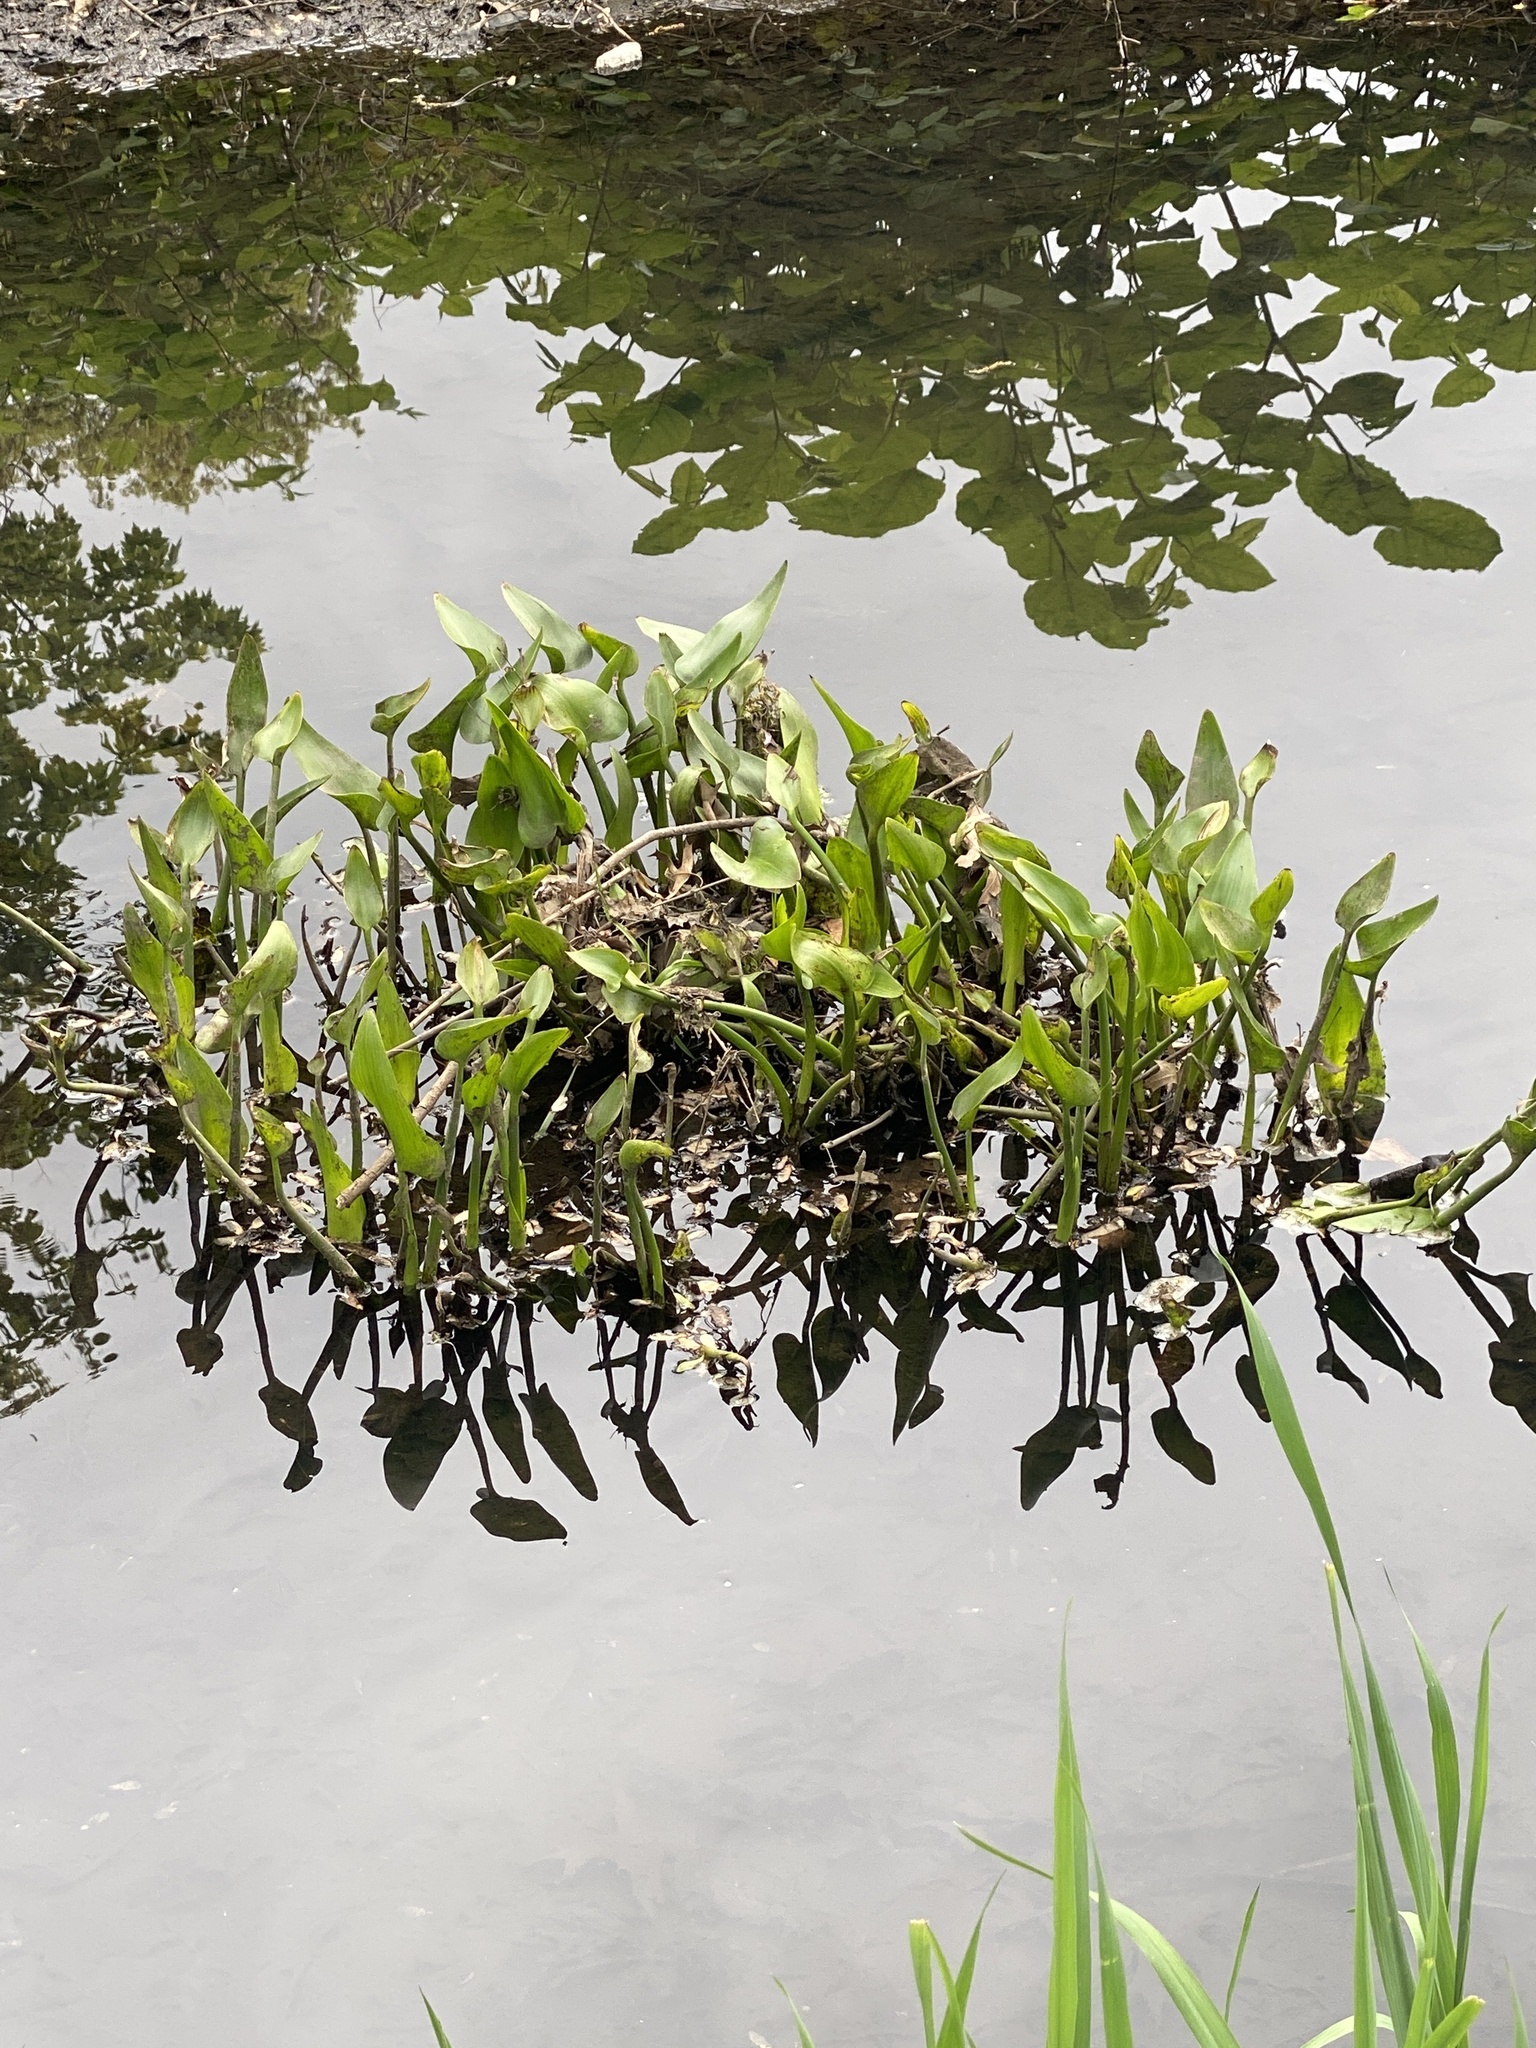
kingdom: Plantae
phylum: Tracheophyta
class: Liliopsida
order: Commelinales
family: Pontederiaceae
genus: Pontederia
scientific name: Pontederia cordata
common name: Pickerelweed
